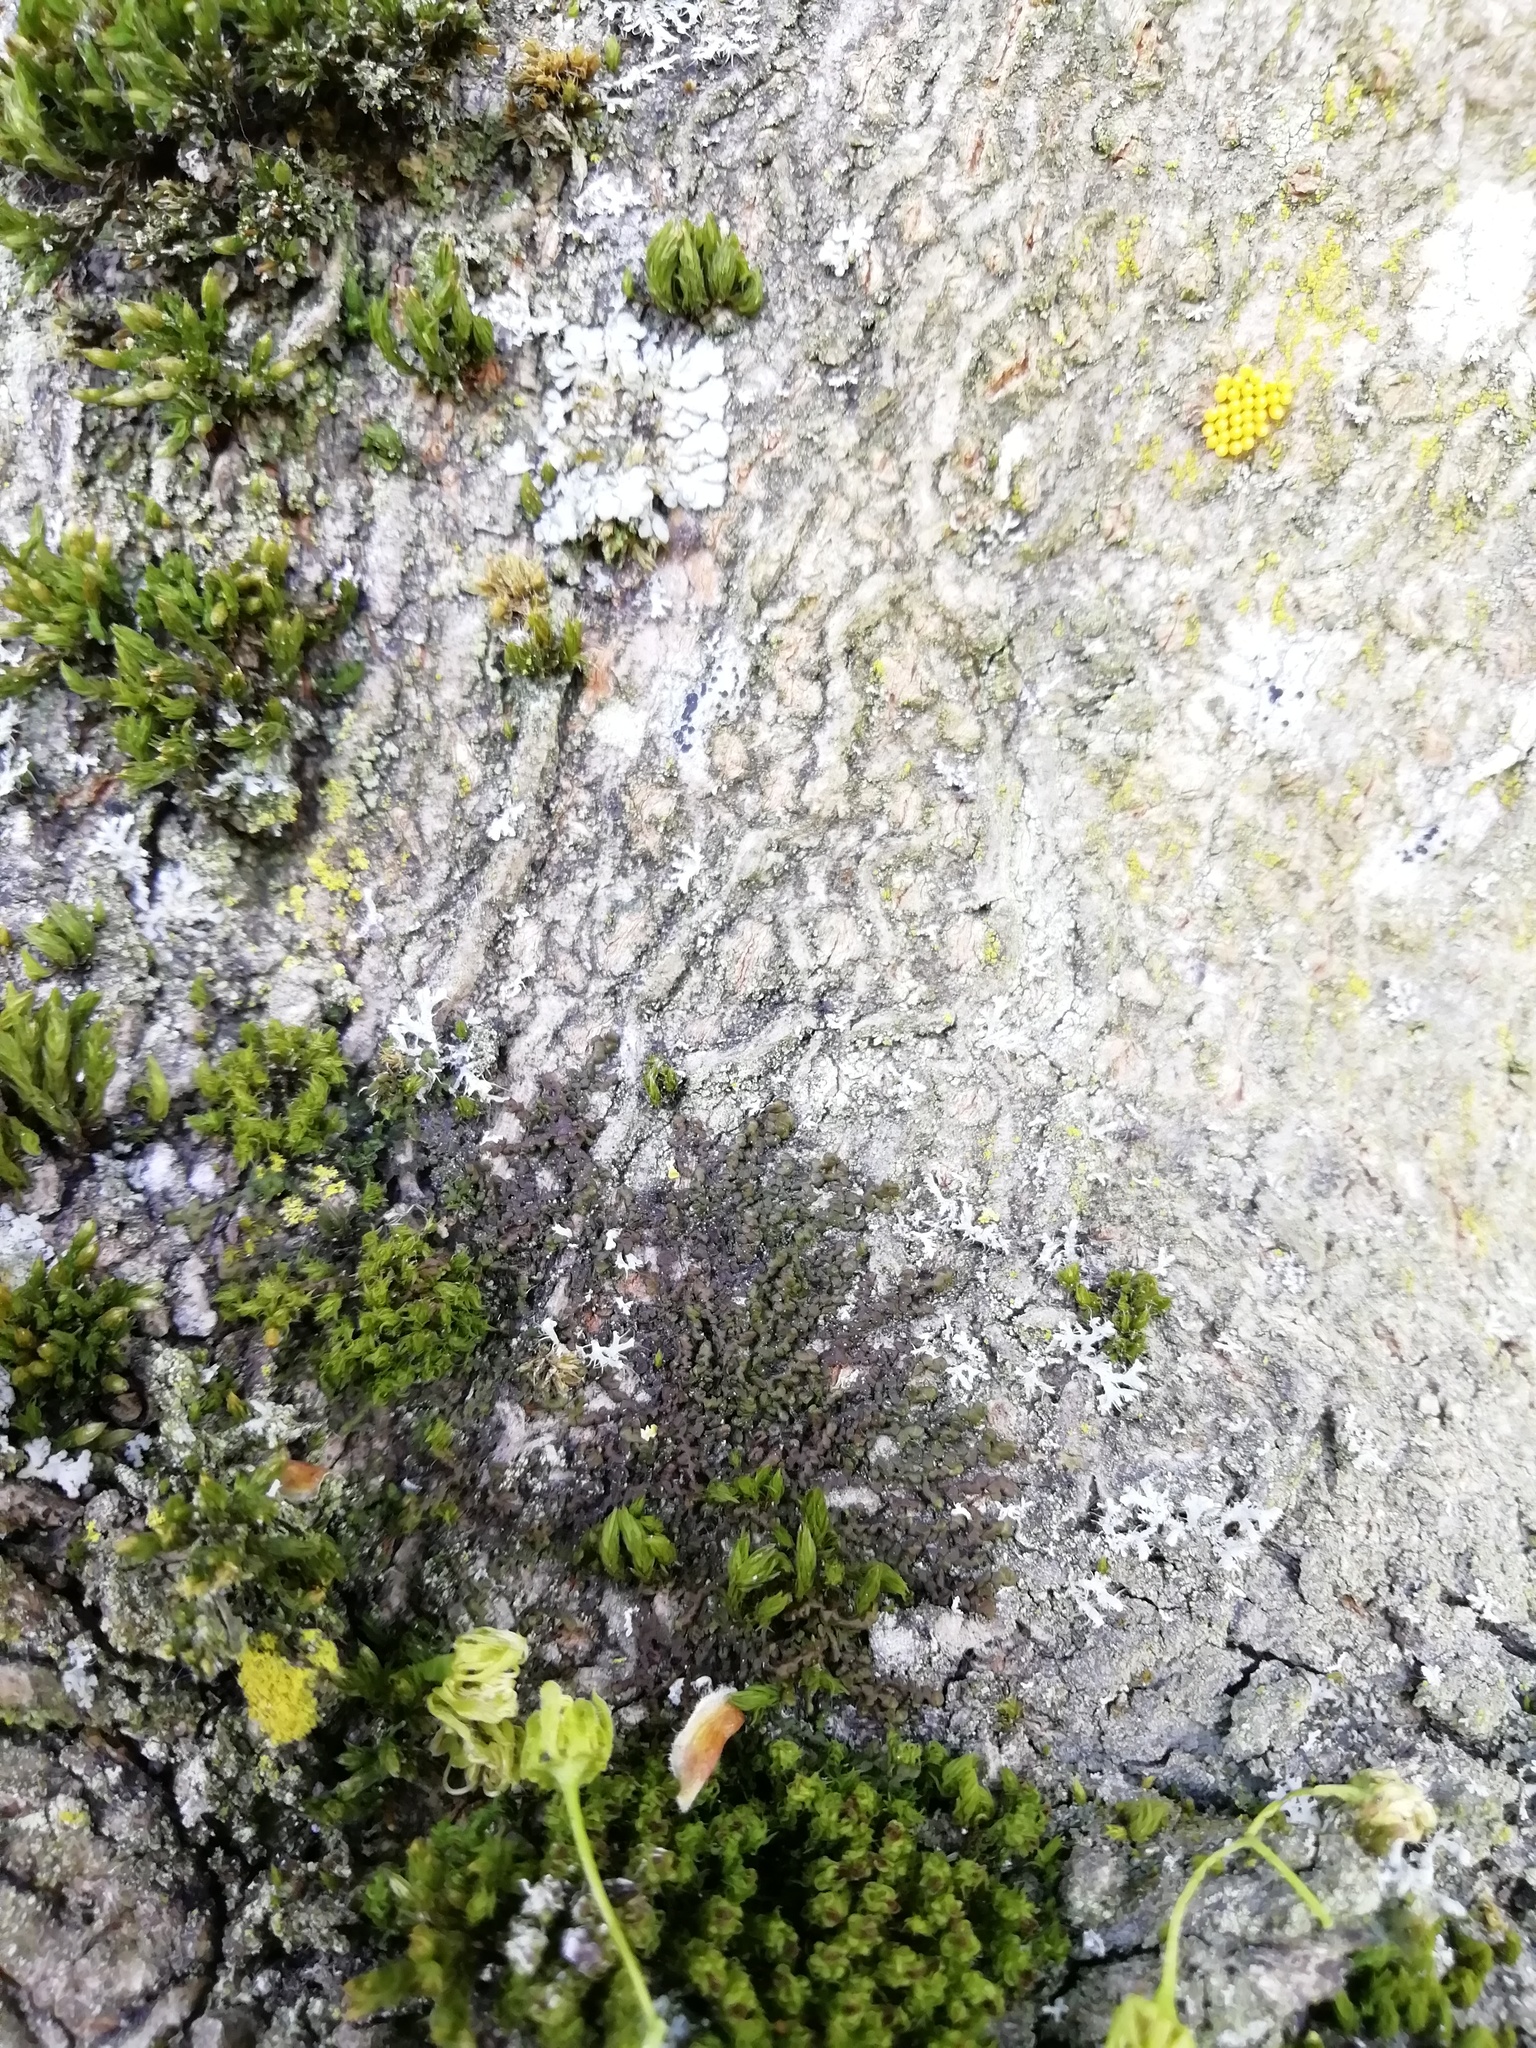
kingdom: Plantae
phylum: Marchantiophyta
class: Jungermanniopsida
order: Porellales
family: Frullaniaceae
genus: Frullania
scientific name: Frullania dilatata
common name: Dilated scalewort
